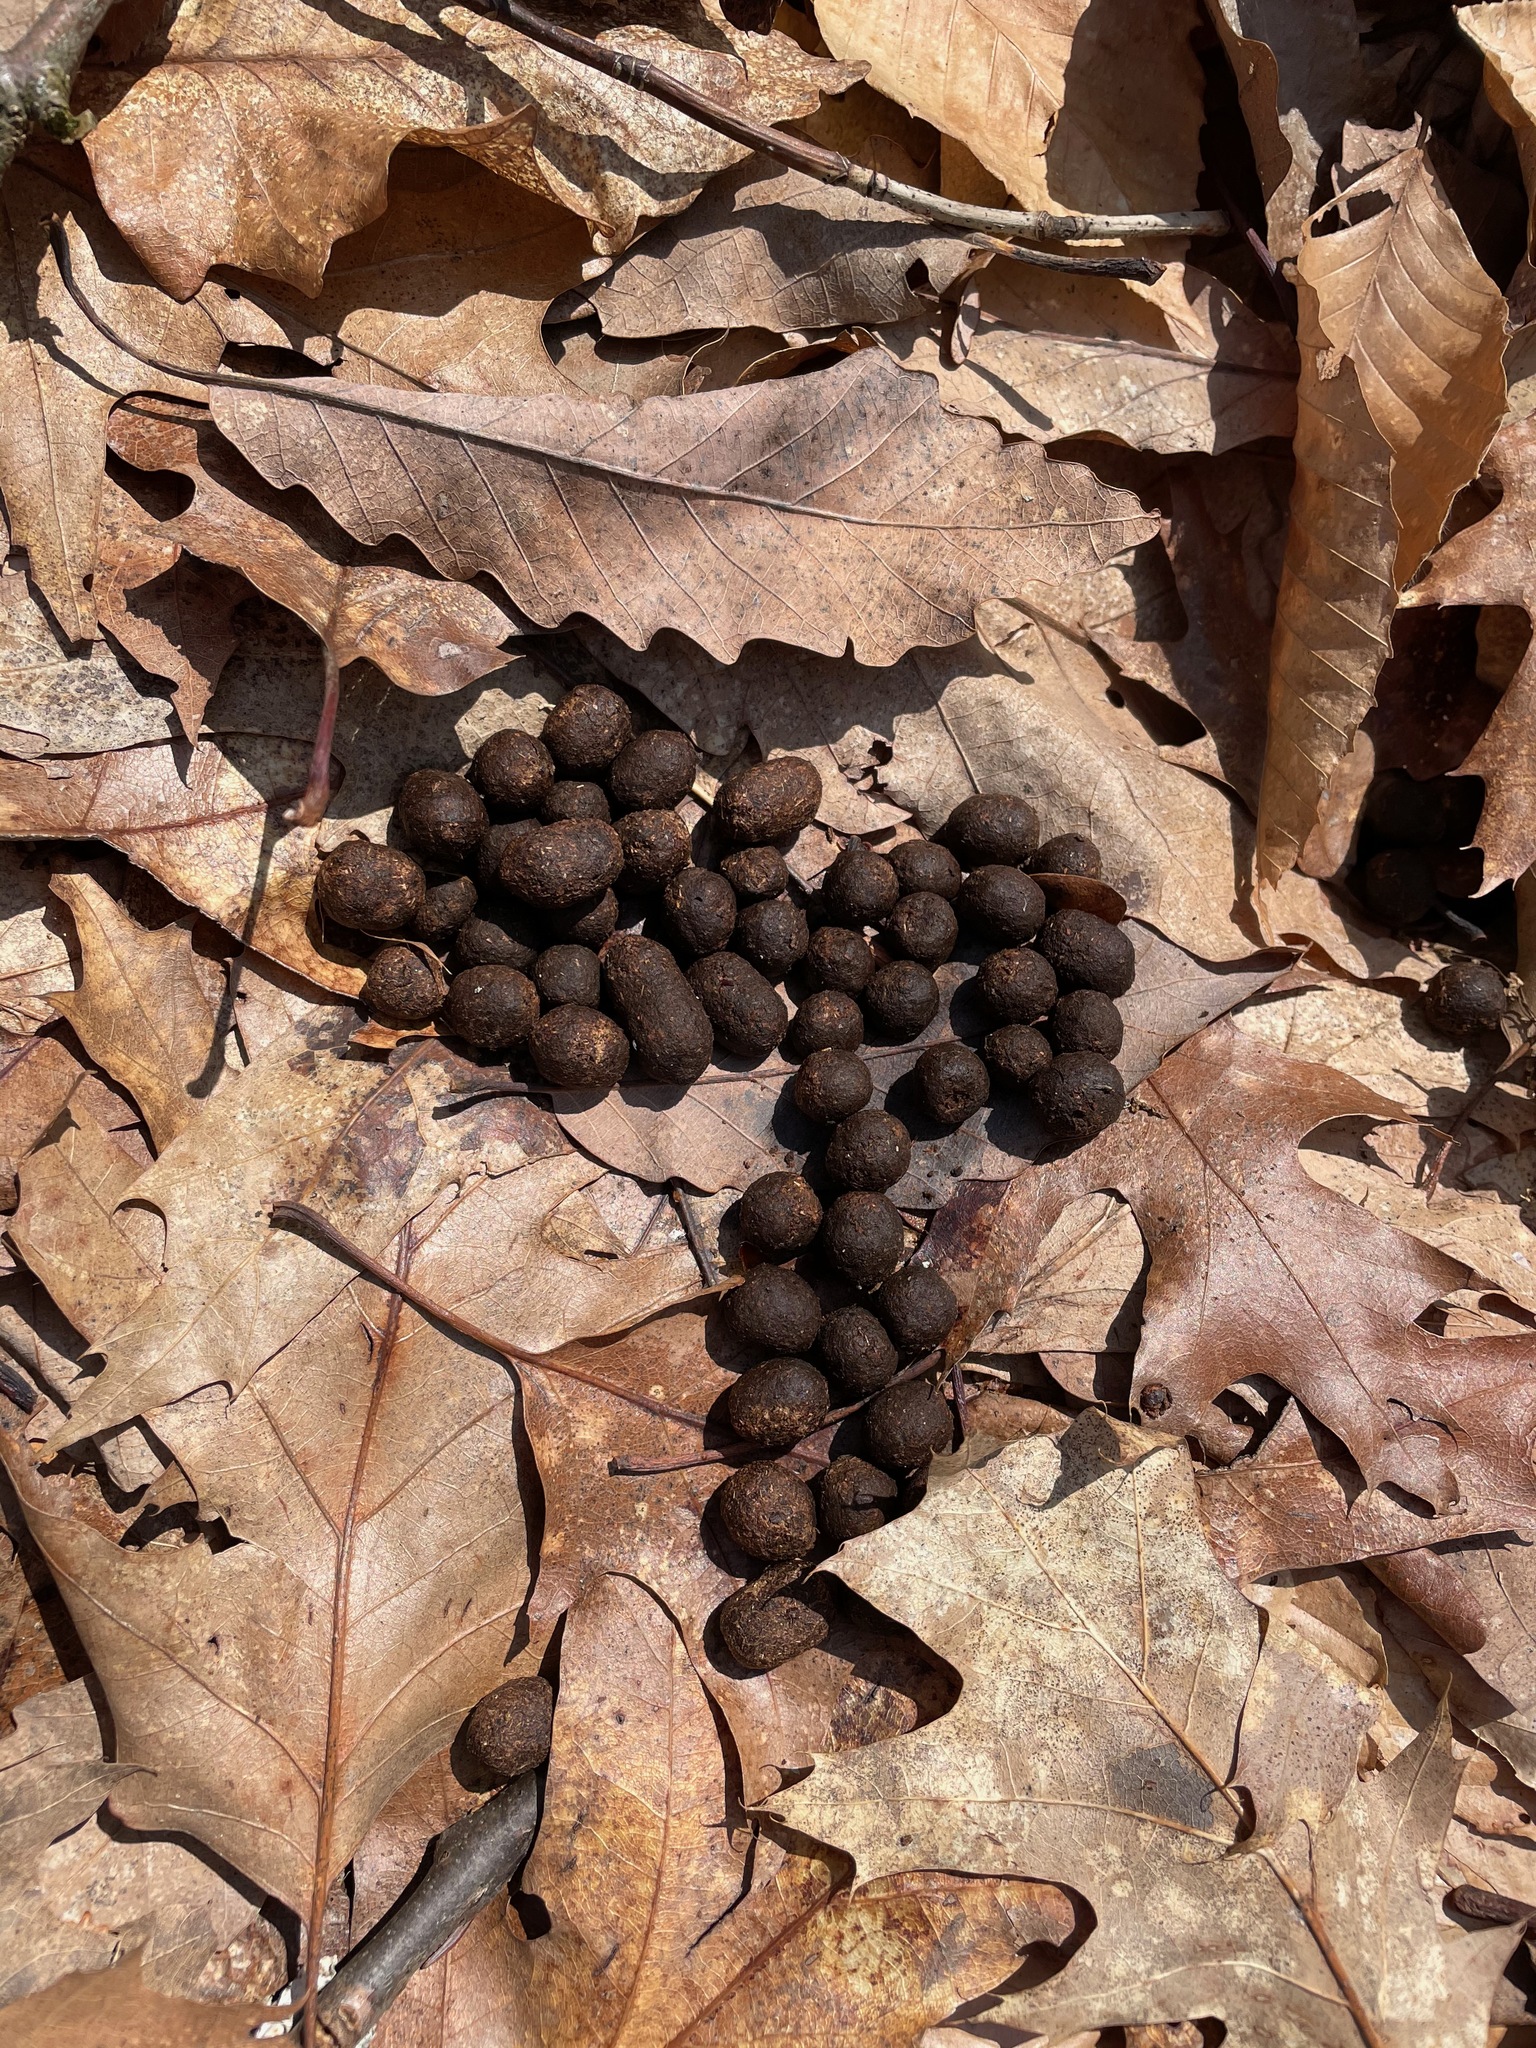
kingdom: Animalia
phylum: Chordata
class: Mammalia
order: Artiodactyla
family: Cervidae
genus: Odocoileus
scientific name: Odocoileus virginianus
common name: White-tailed deer
